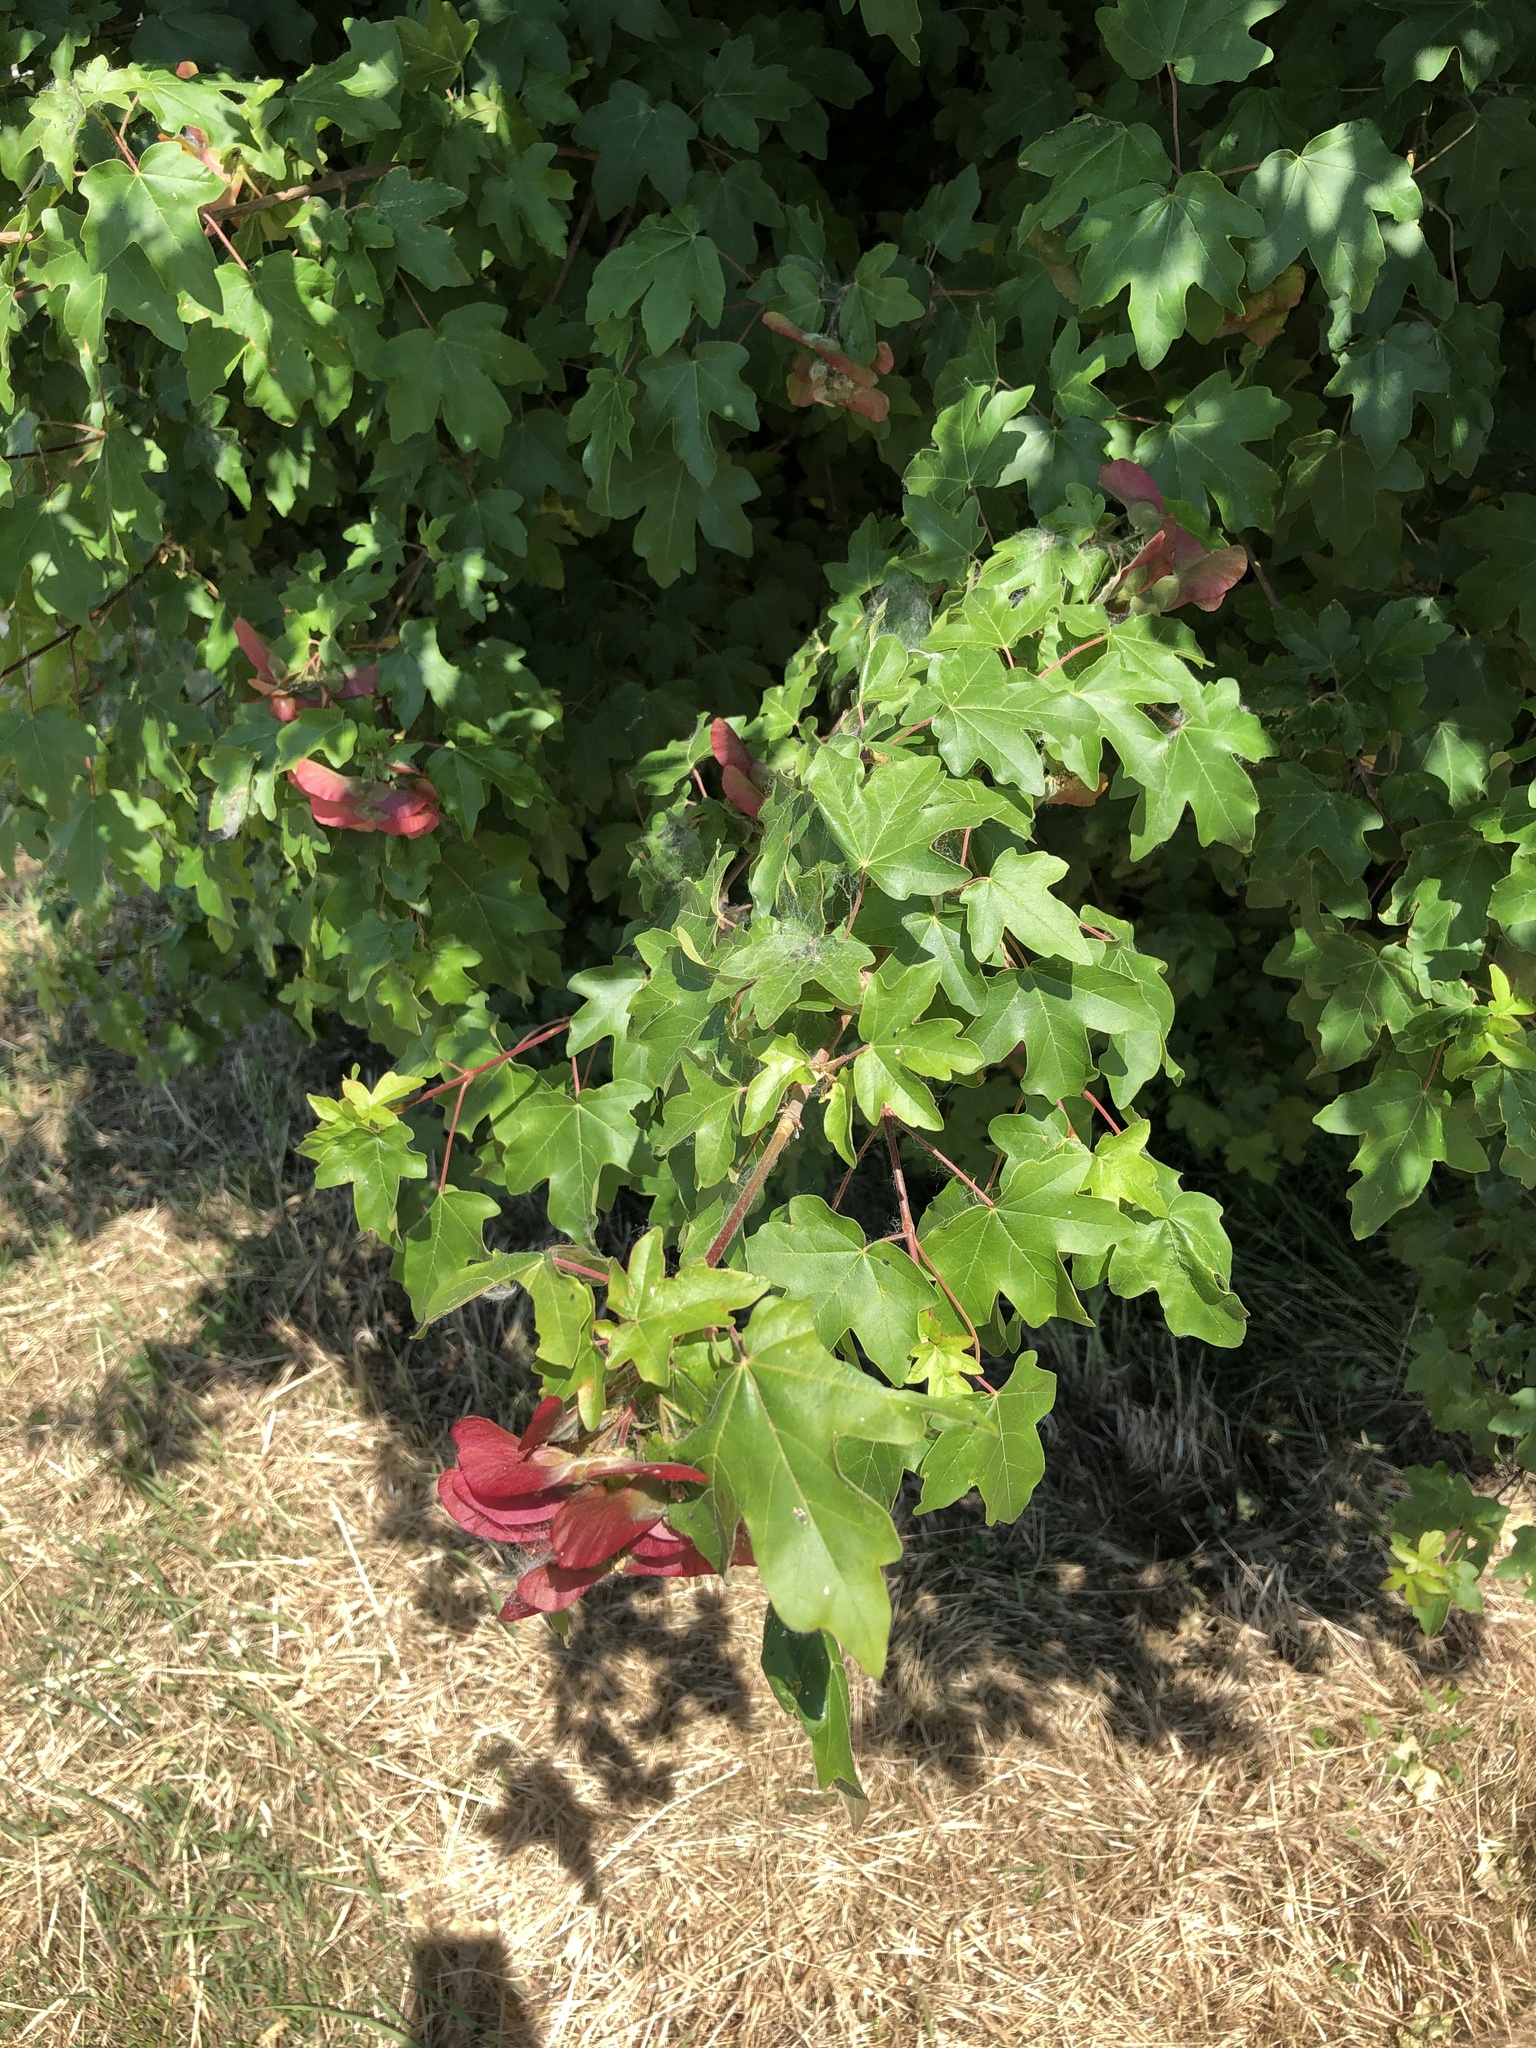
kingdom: Plantae
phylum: Tracheophyta
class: Magnoliopsida
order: Sapindales
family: Sapindaceae
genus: Acer
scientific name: Acer campestre
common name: Field maple
